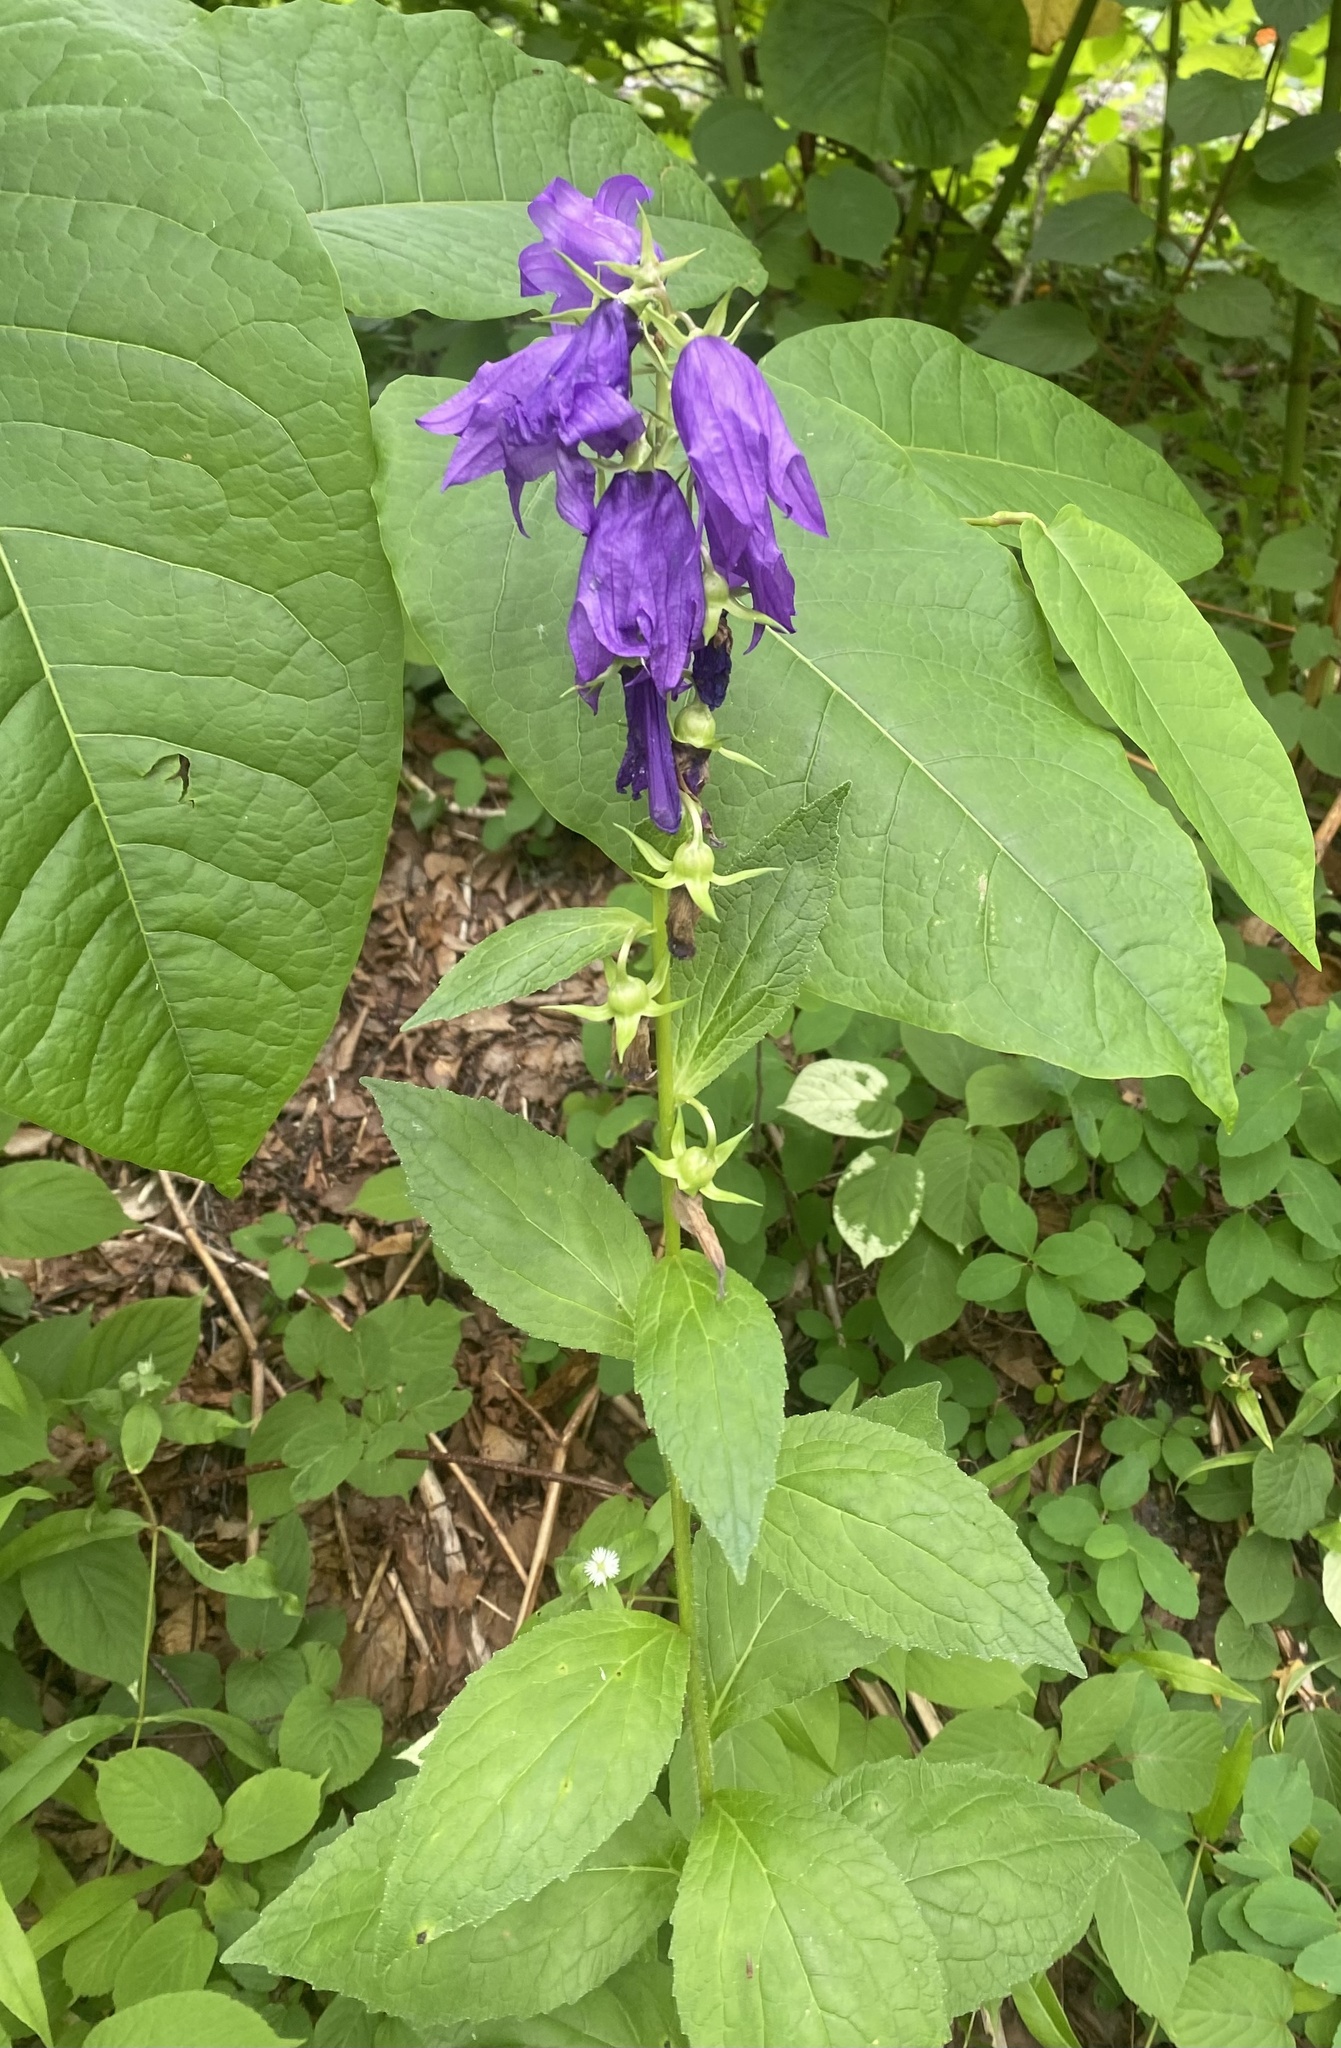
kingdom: Plantae
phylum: Tracheophyta
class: Magnoliopsida
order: Asterales
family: Campanulaceae
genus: Campanula
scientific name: Campanula latifolia
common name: Giant bellflower
